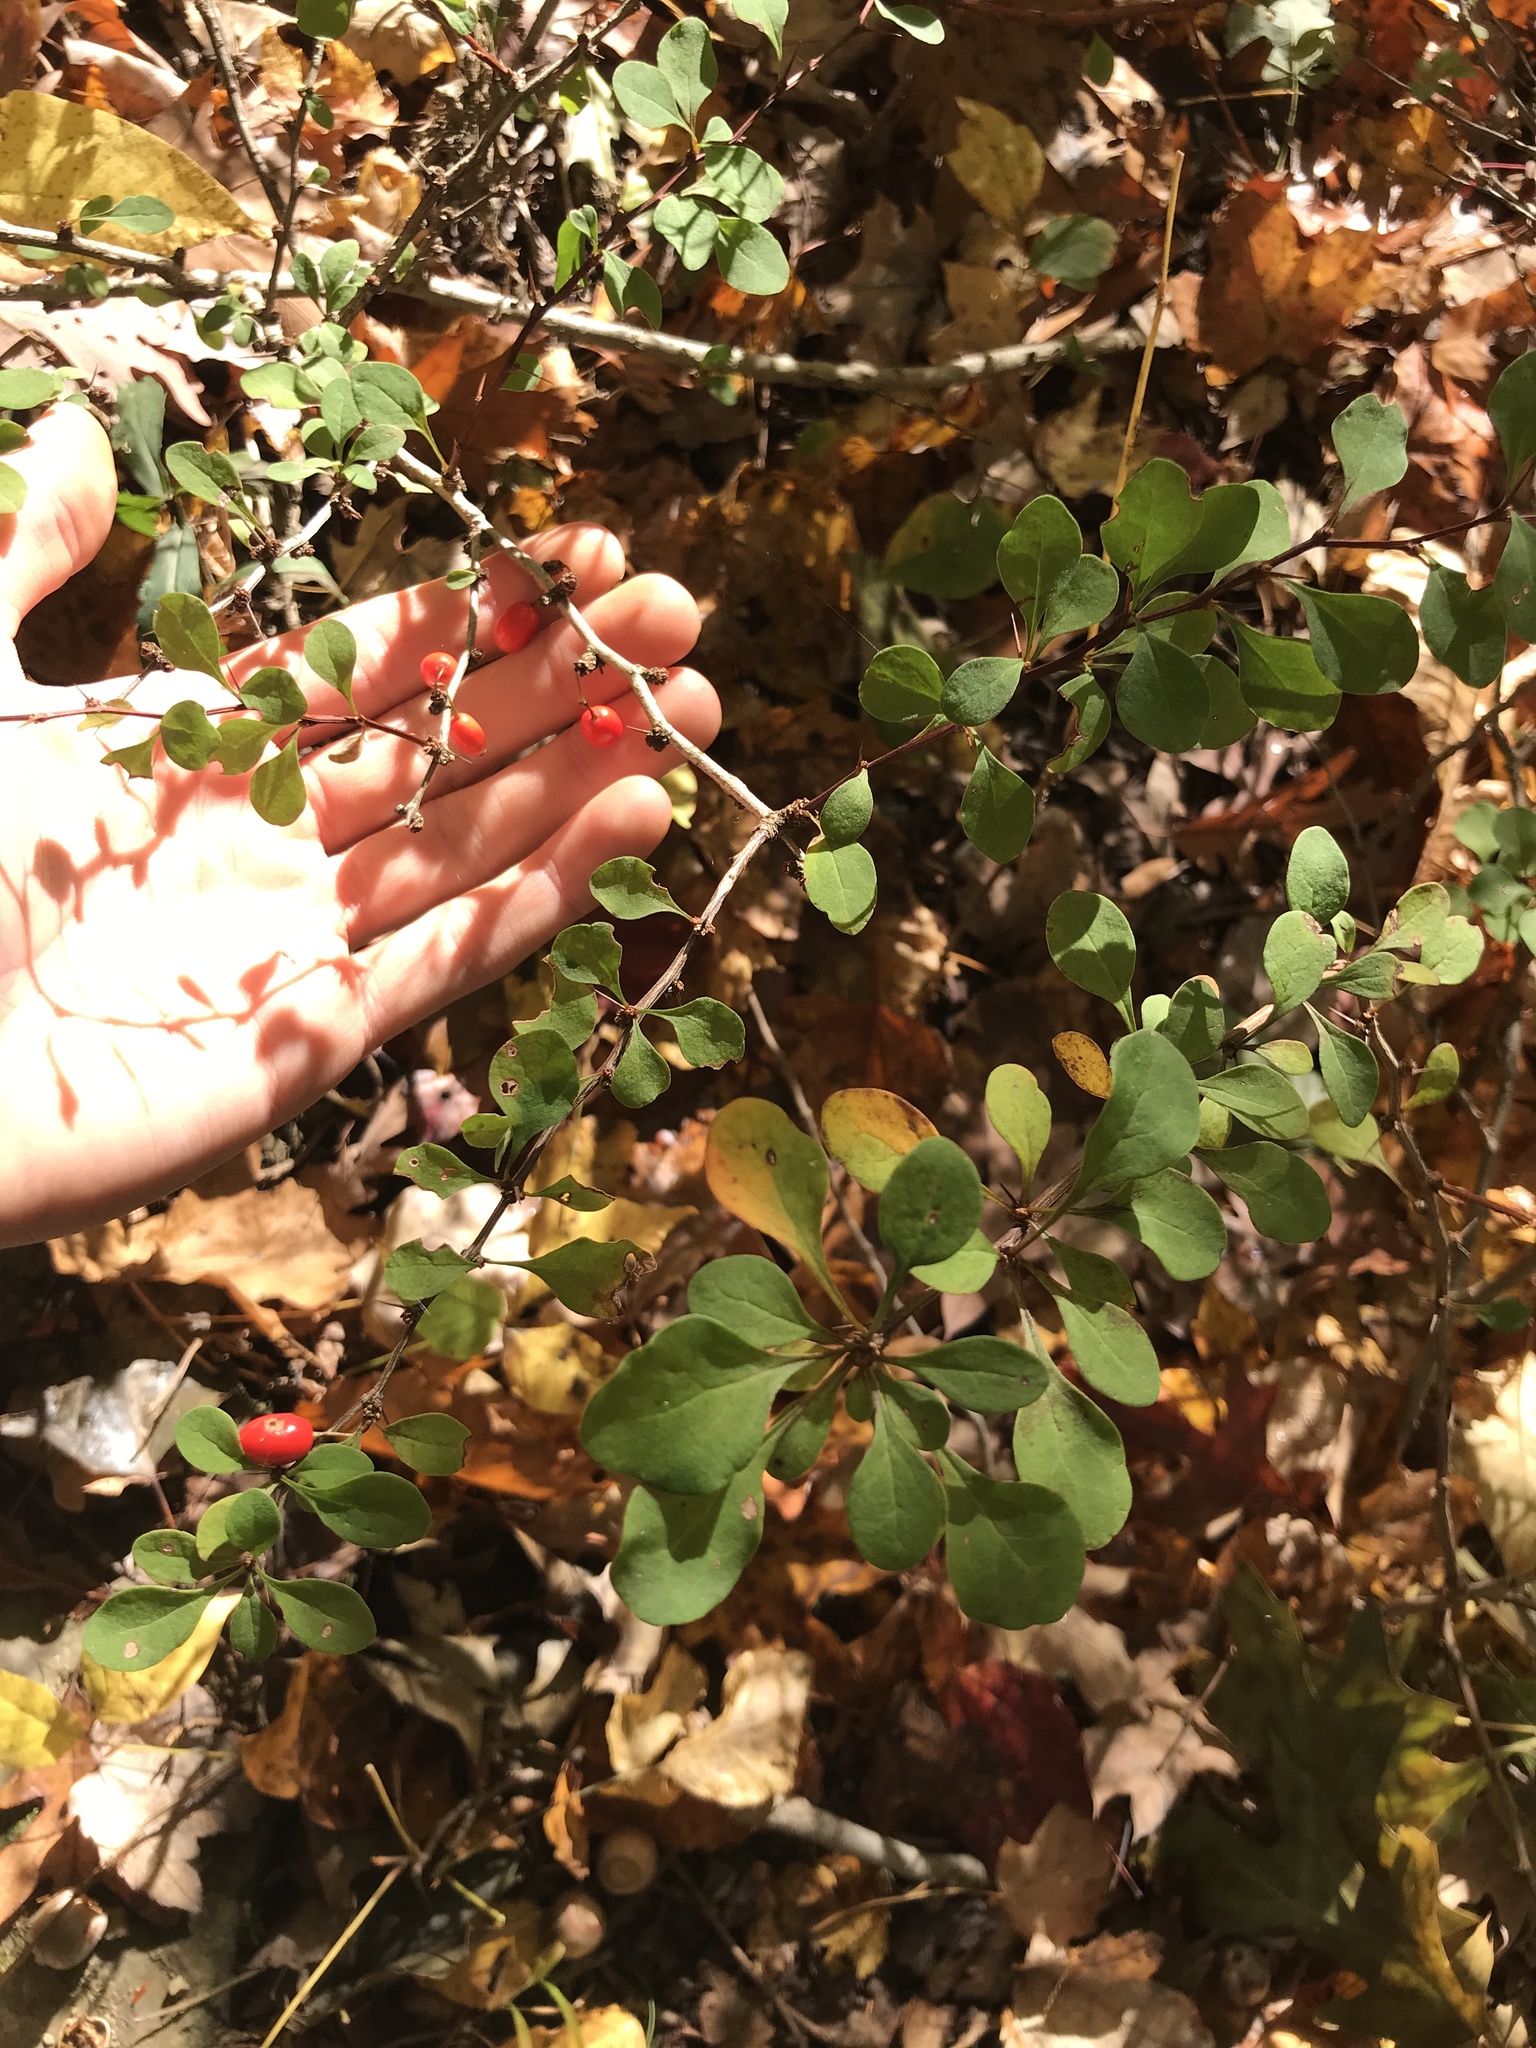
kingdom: Plantae
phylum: Tracheophyta
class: Magnoliopsida
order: Ranunculales
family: Berberidaceae
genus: Berberis
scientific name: Berberis thunbergii
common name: Japanese barberry
